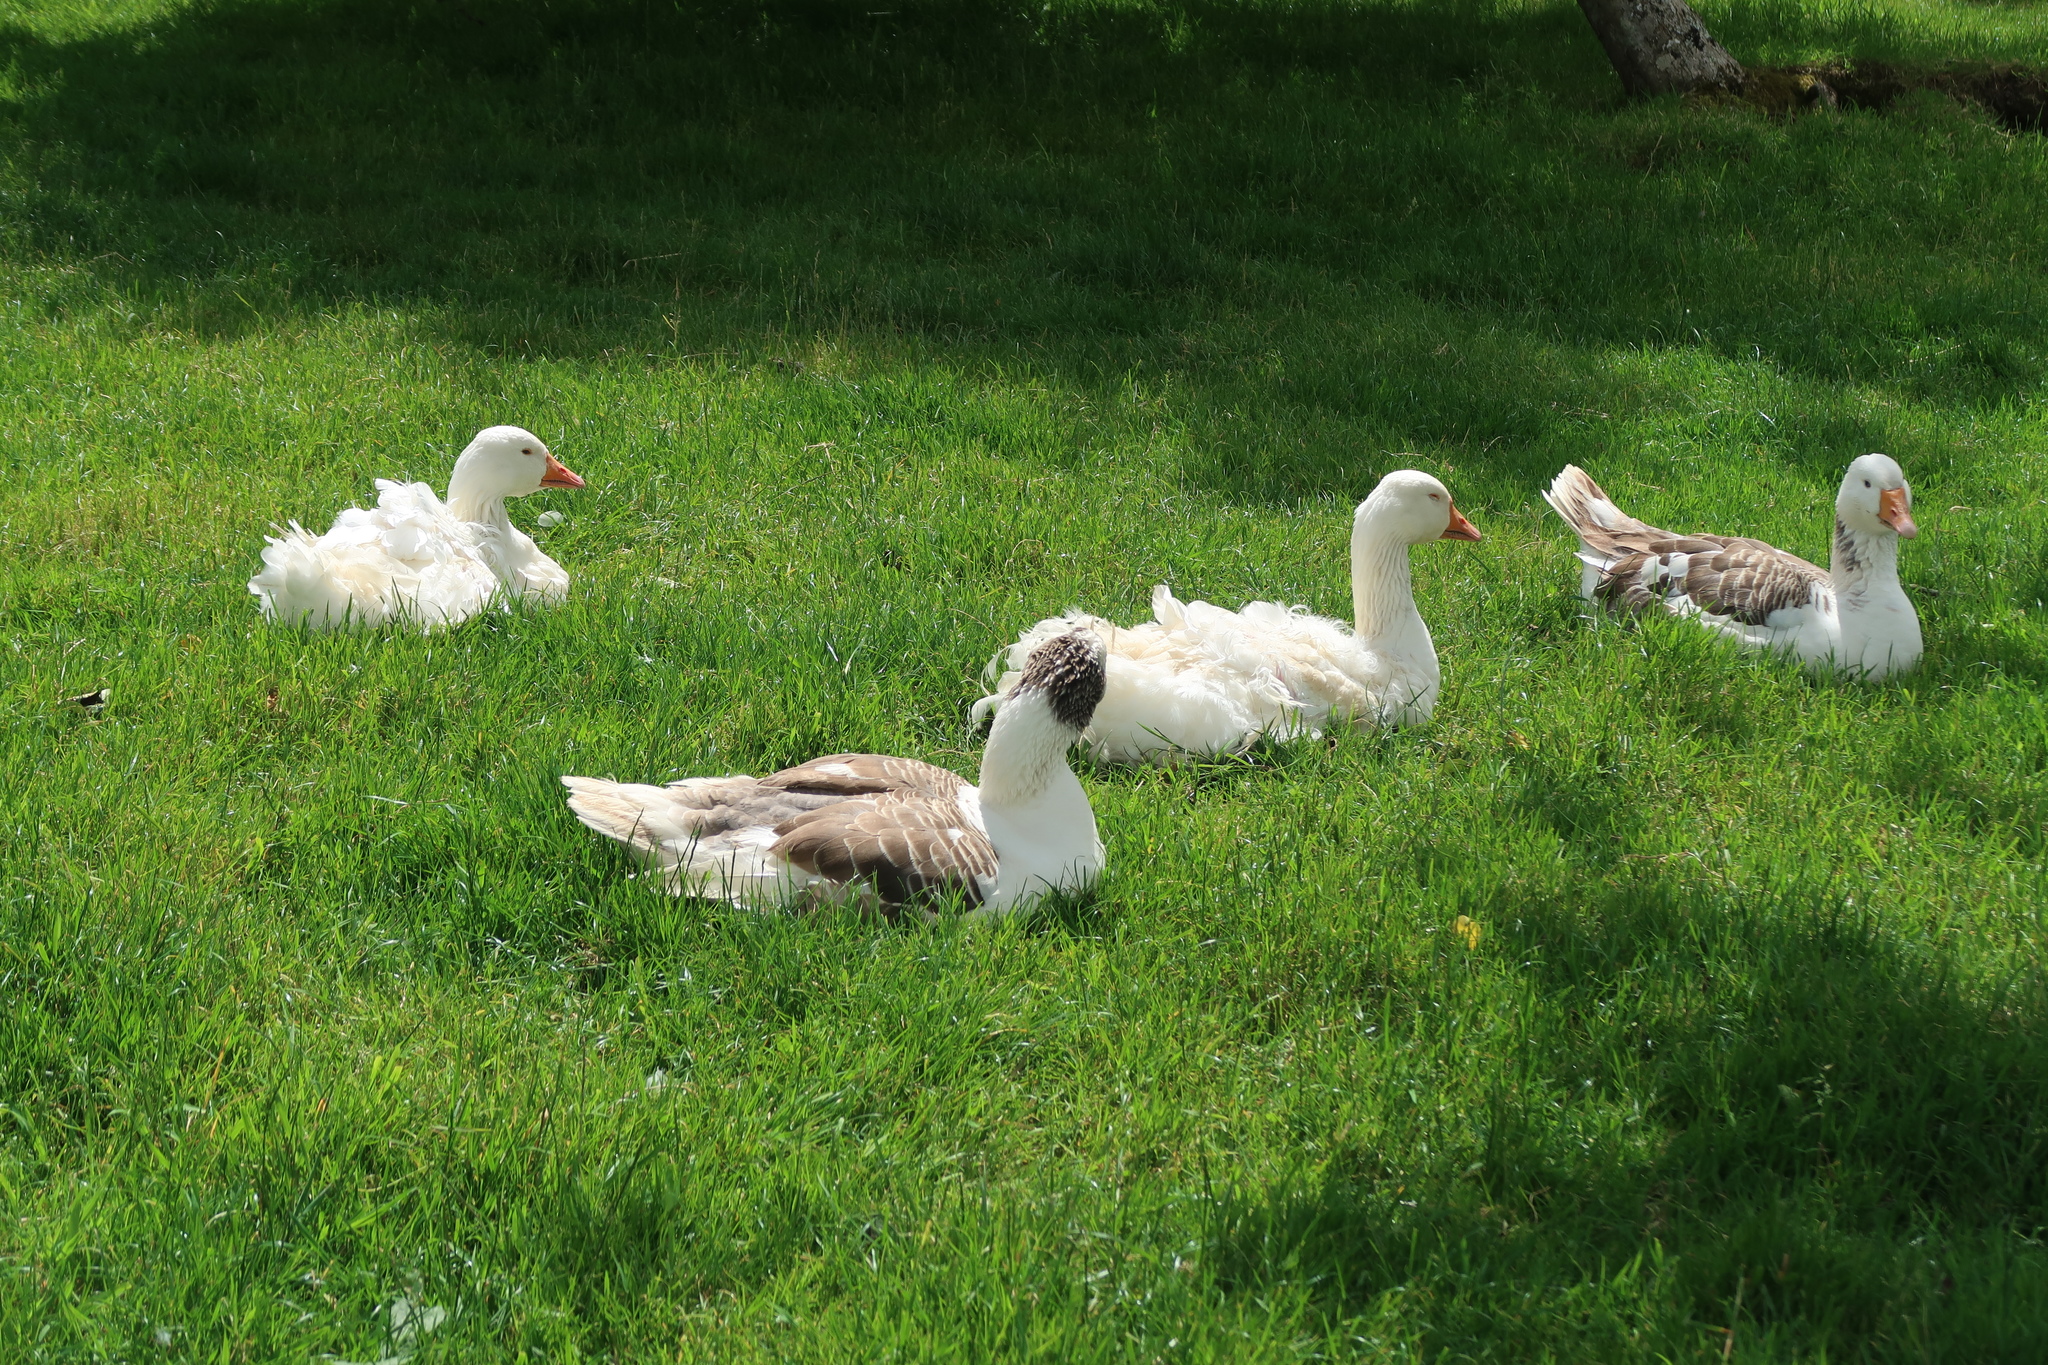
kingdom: Animalia
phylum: Chordata
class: Aves
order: Anseriformes
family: Anatidae
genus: Anser
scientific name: Anser anser
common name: Greylag goose
